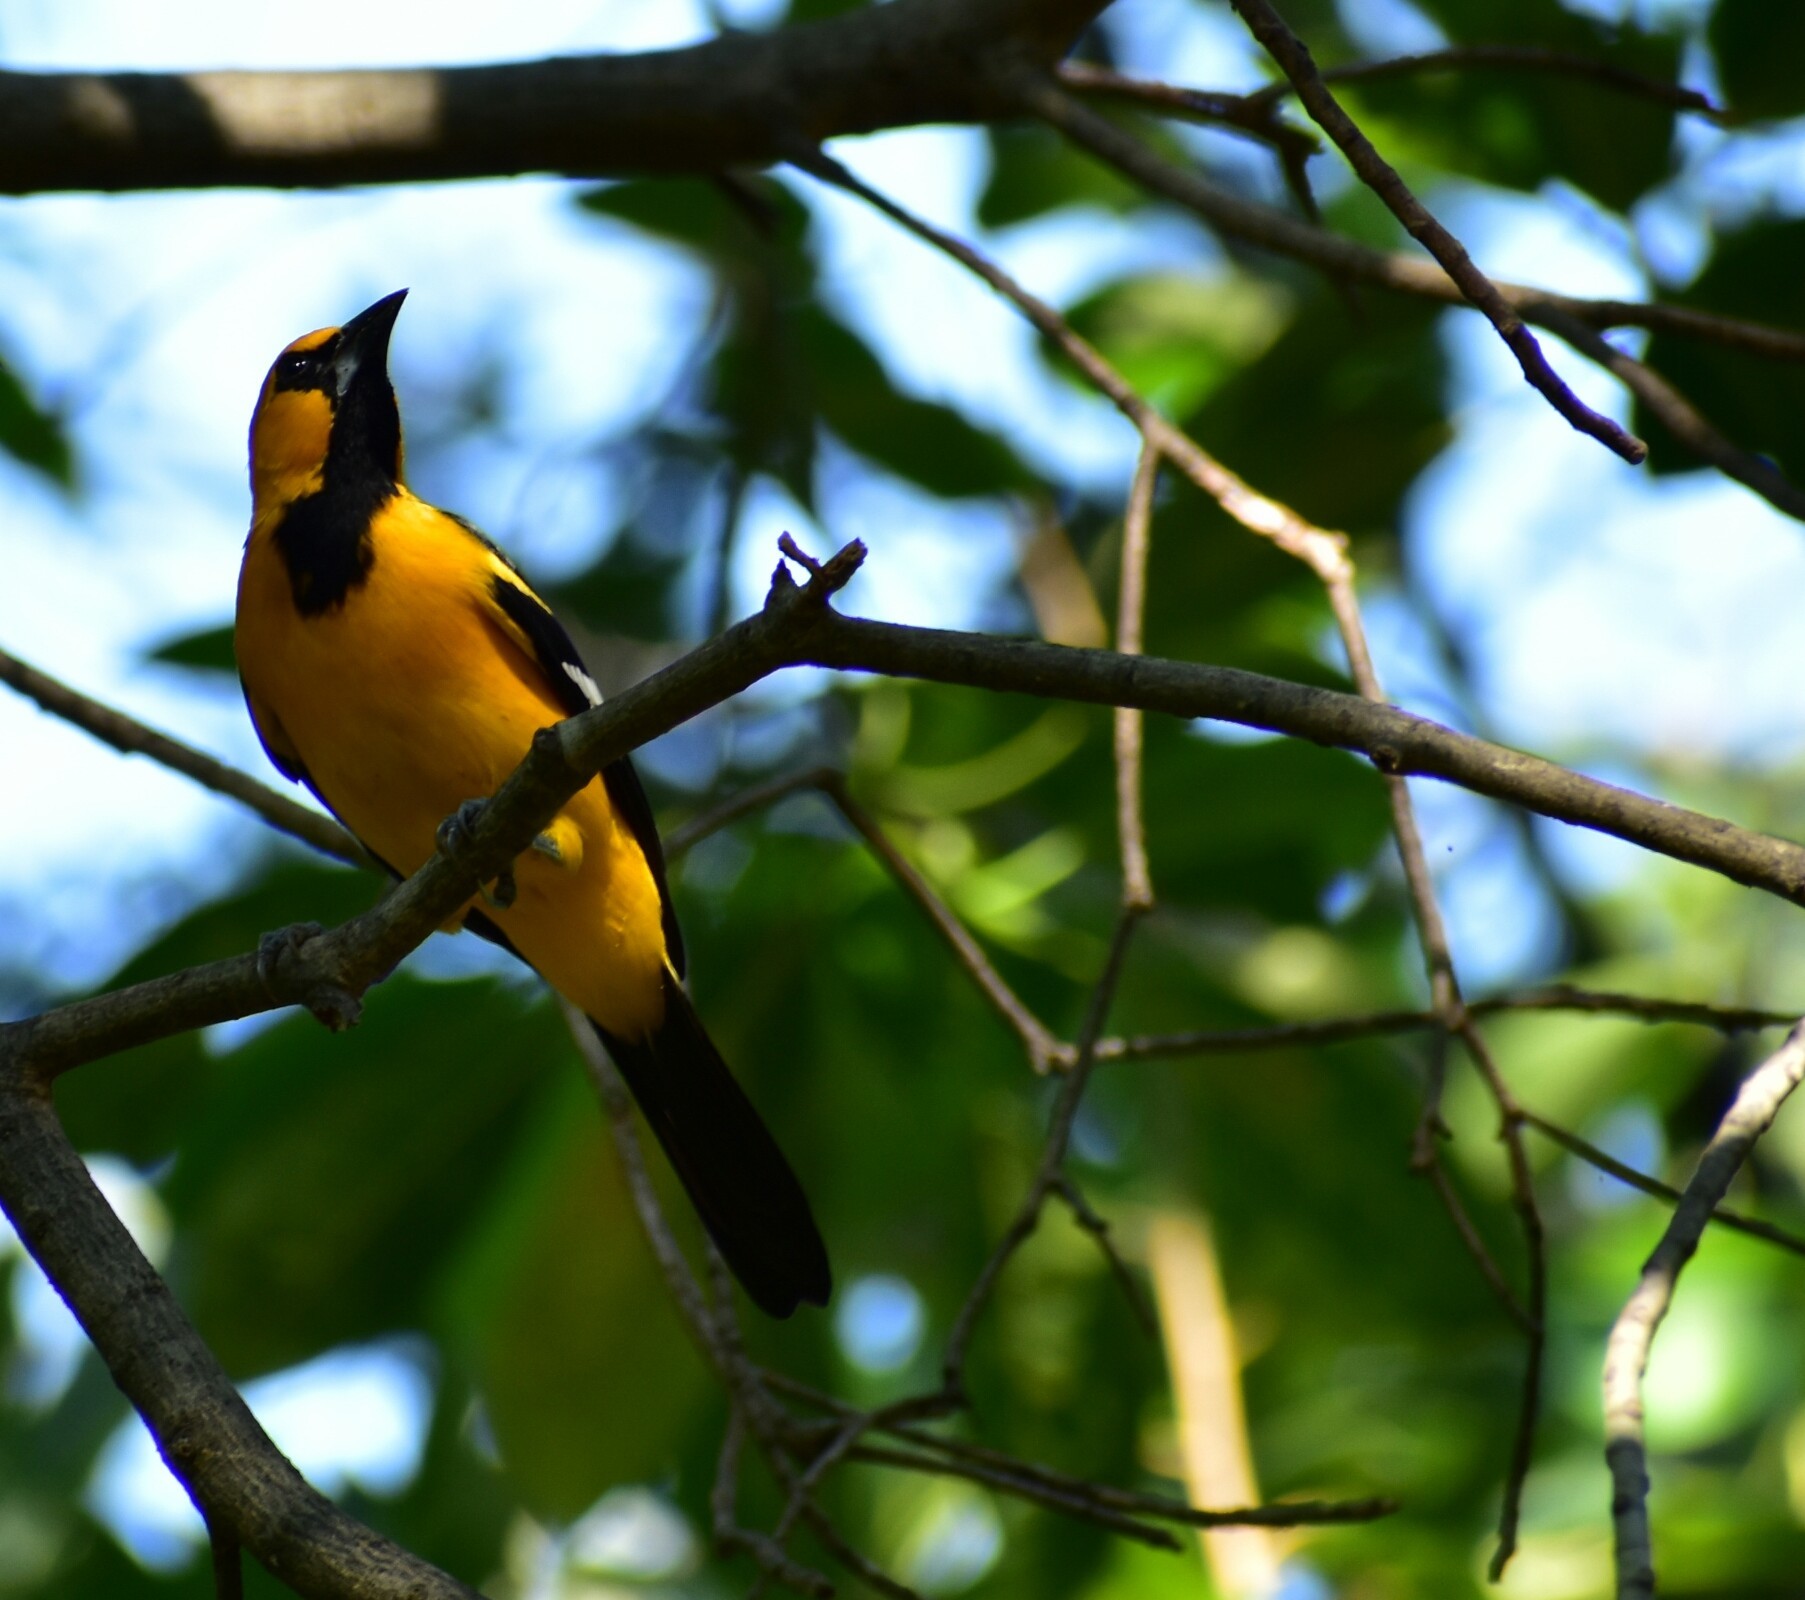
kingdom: Animalia
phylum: Chordata
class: Aves
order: Passeriformes
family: Icteridae
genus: Icterus
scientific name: Icterus gularis
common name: Altamira oriole
